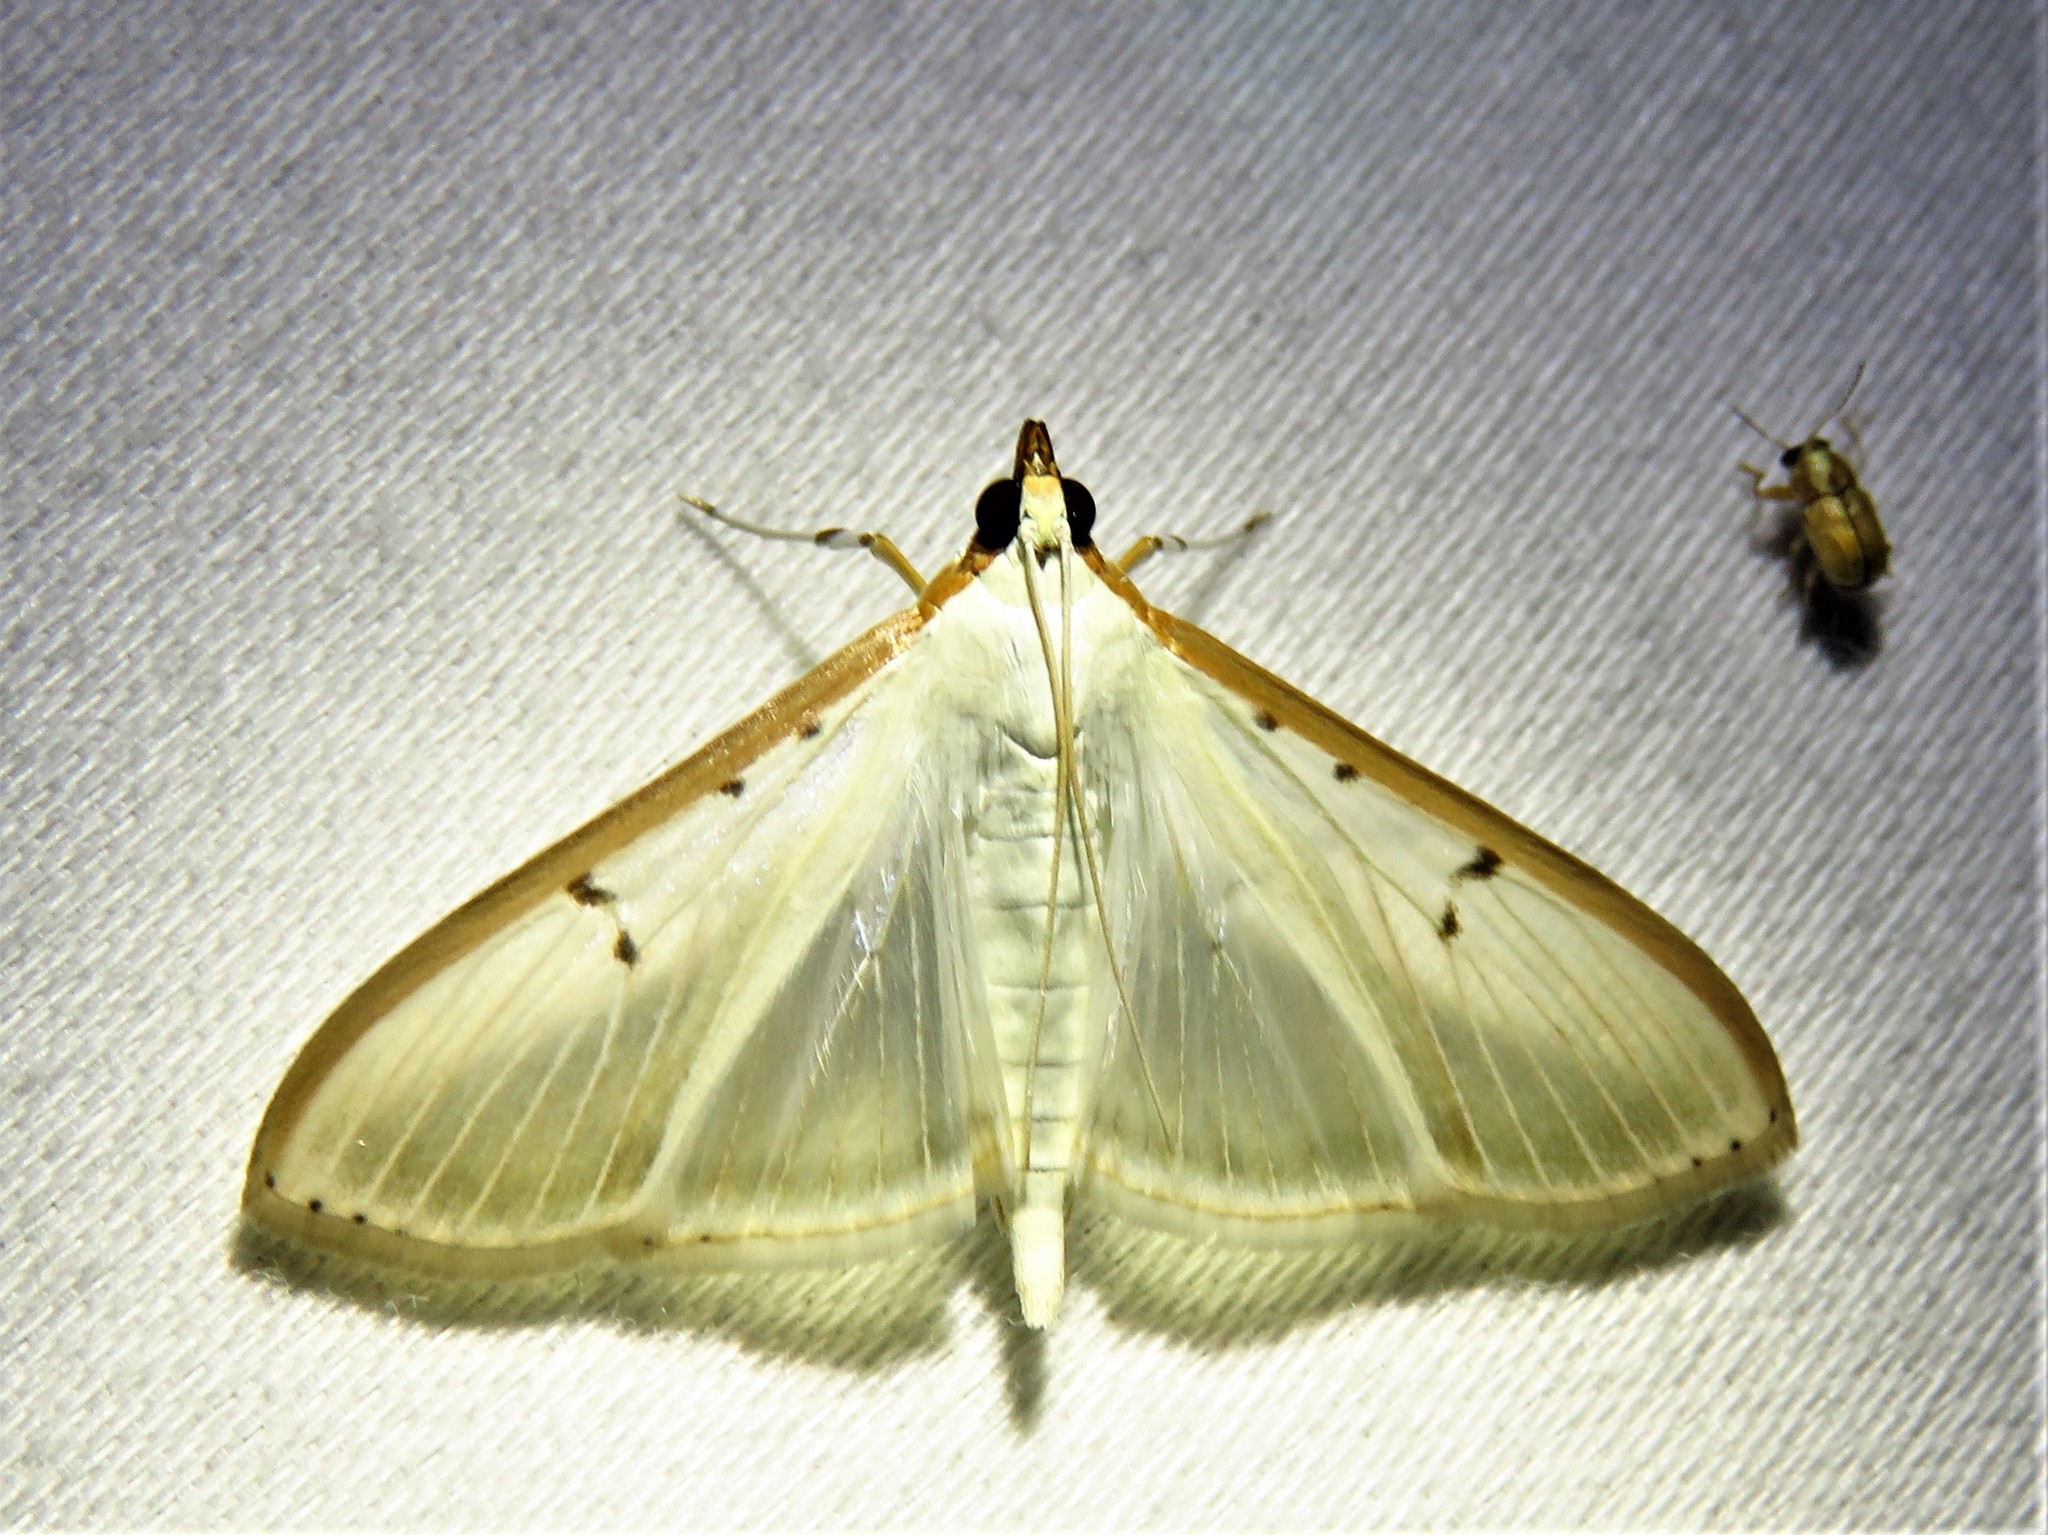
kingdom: Animalia
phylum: Arthropoda
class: Insecta
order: Lepidoptera
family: Crambidae
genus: Palpita
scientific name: Palpita quadristigmalis
